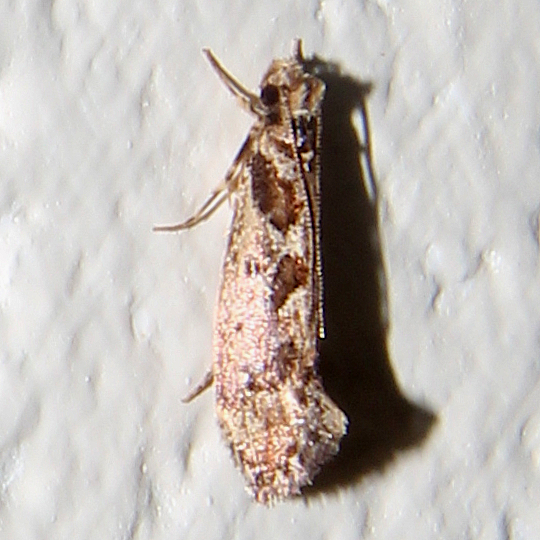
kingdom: Animalia
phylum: Arthropoda
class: Insecta
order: Lepidoptera
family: Tineidae
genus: Erechthias
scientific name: Erechthias capnitis
